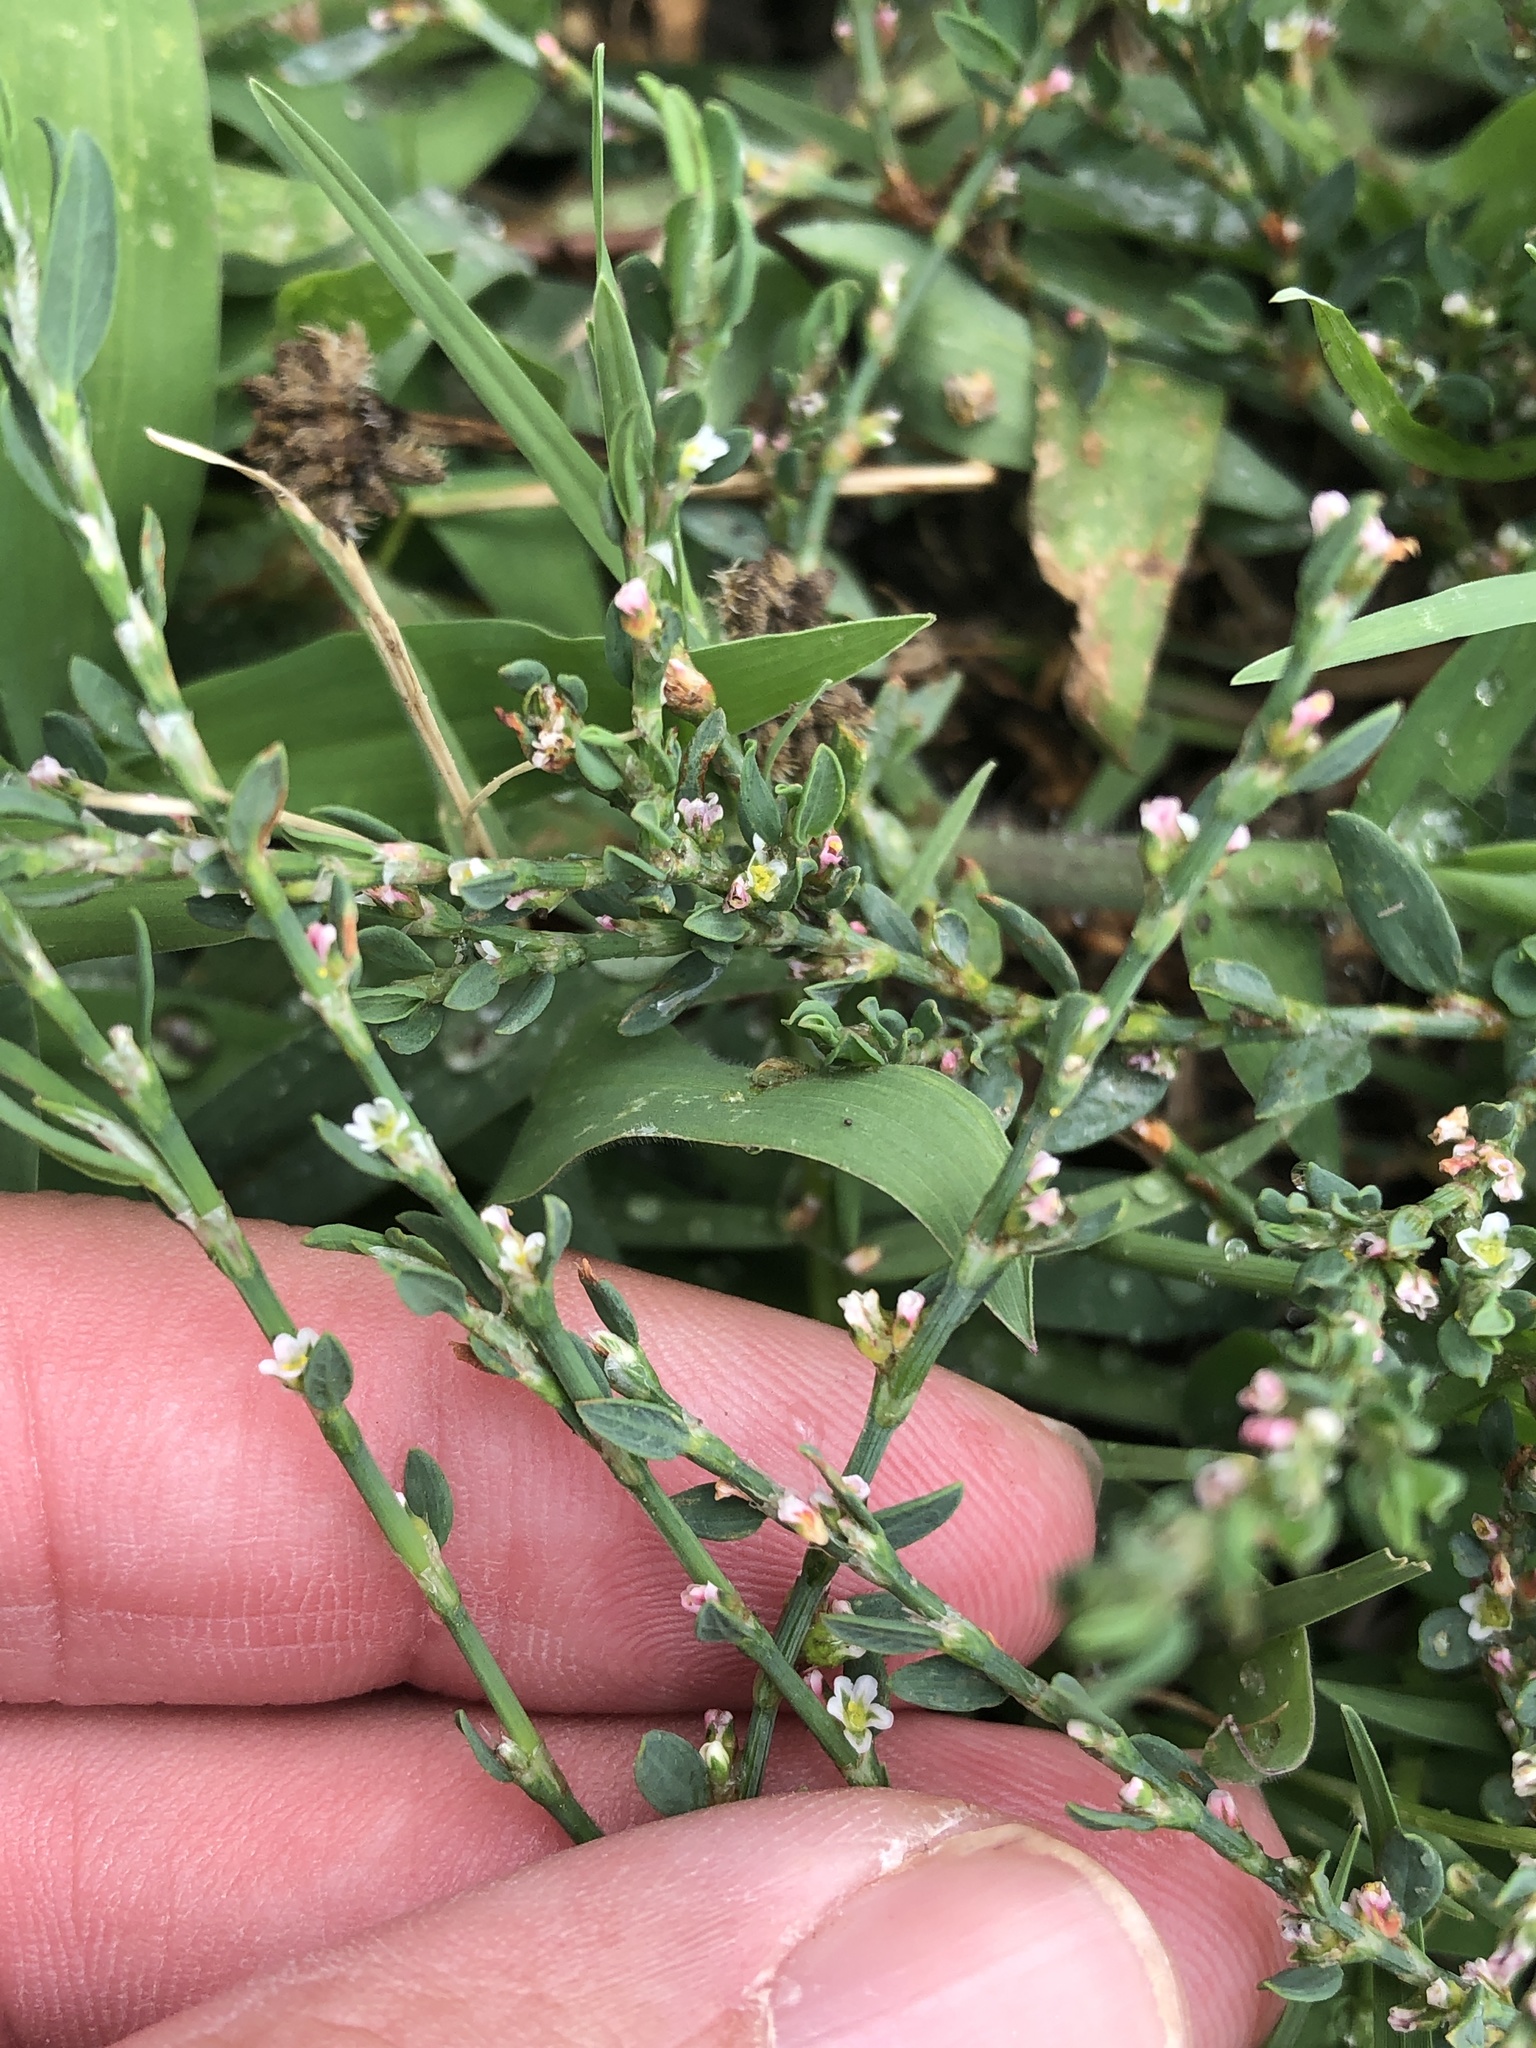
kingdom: Plantae
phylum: Tracheophyta
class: Magnoliopsida
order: Caryophyllales
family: Polygonaceae
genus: Polygonum
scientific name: Polygonum aviculare
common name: Prostrate knotweed
